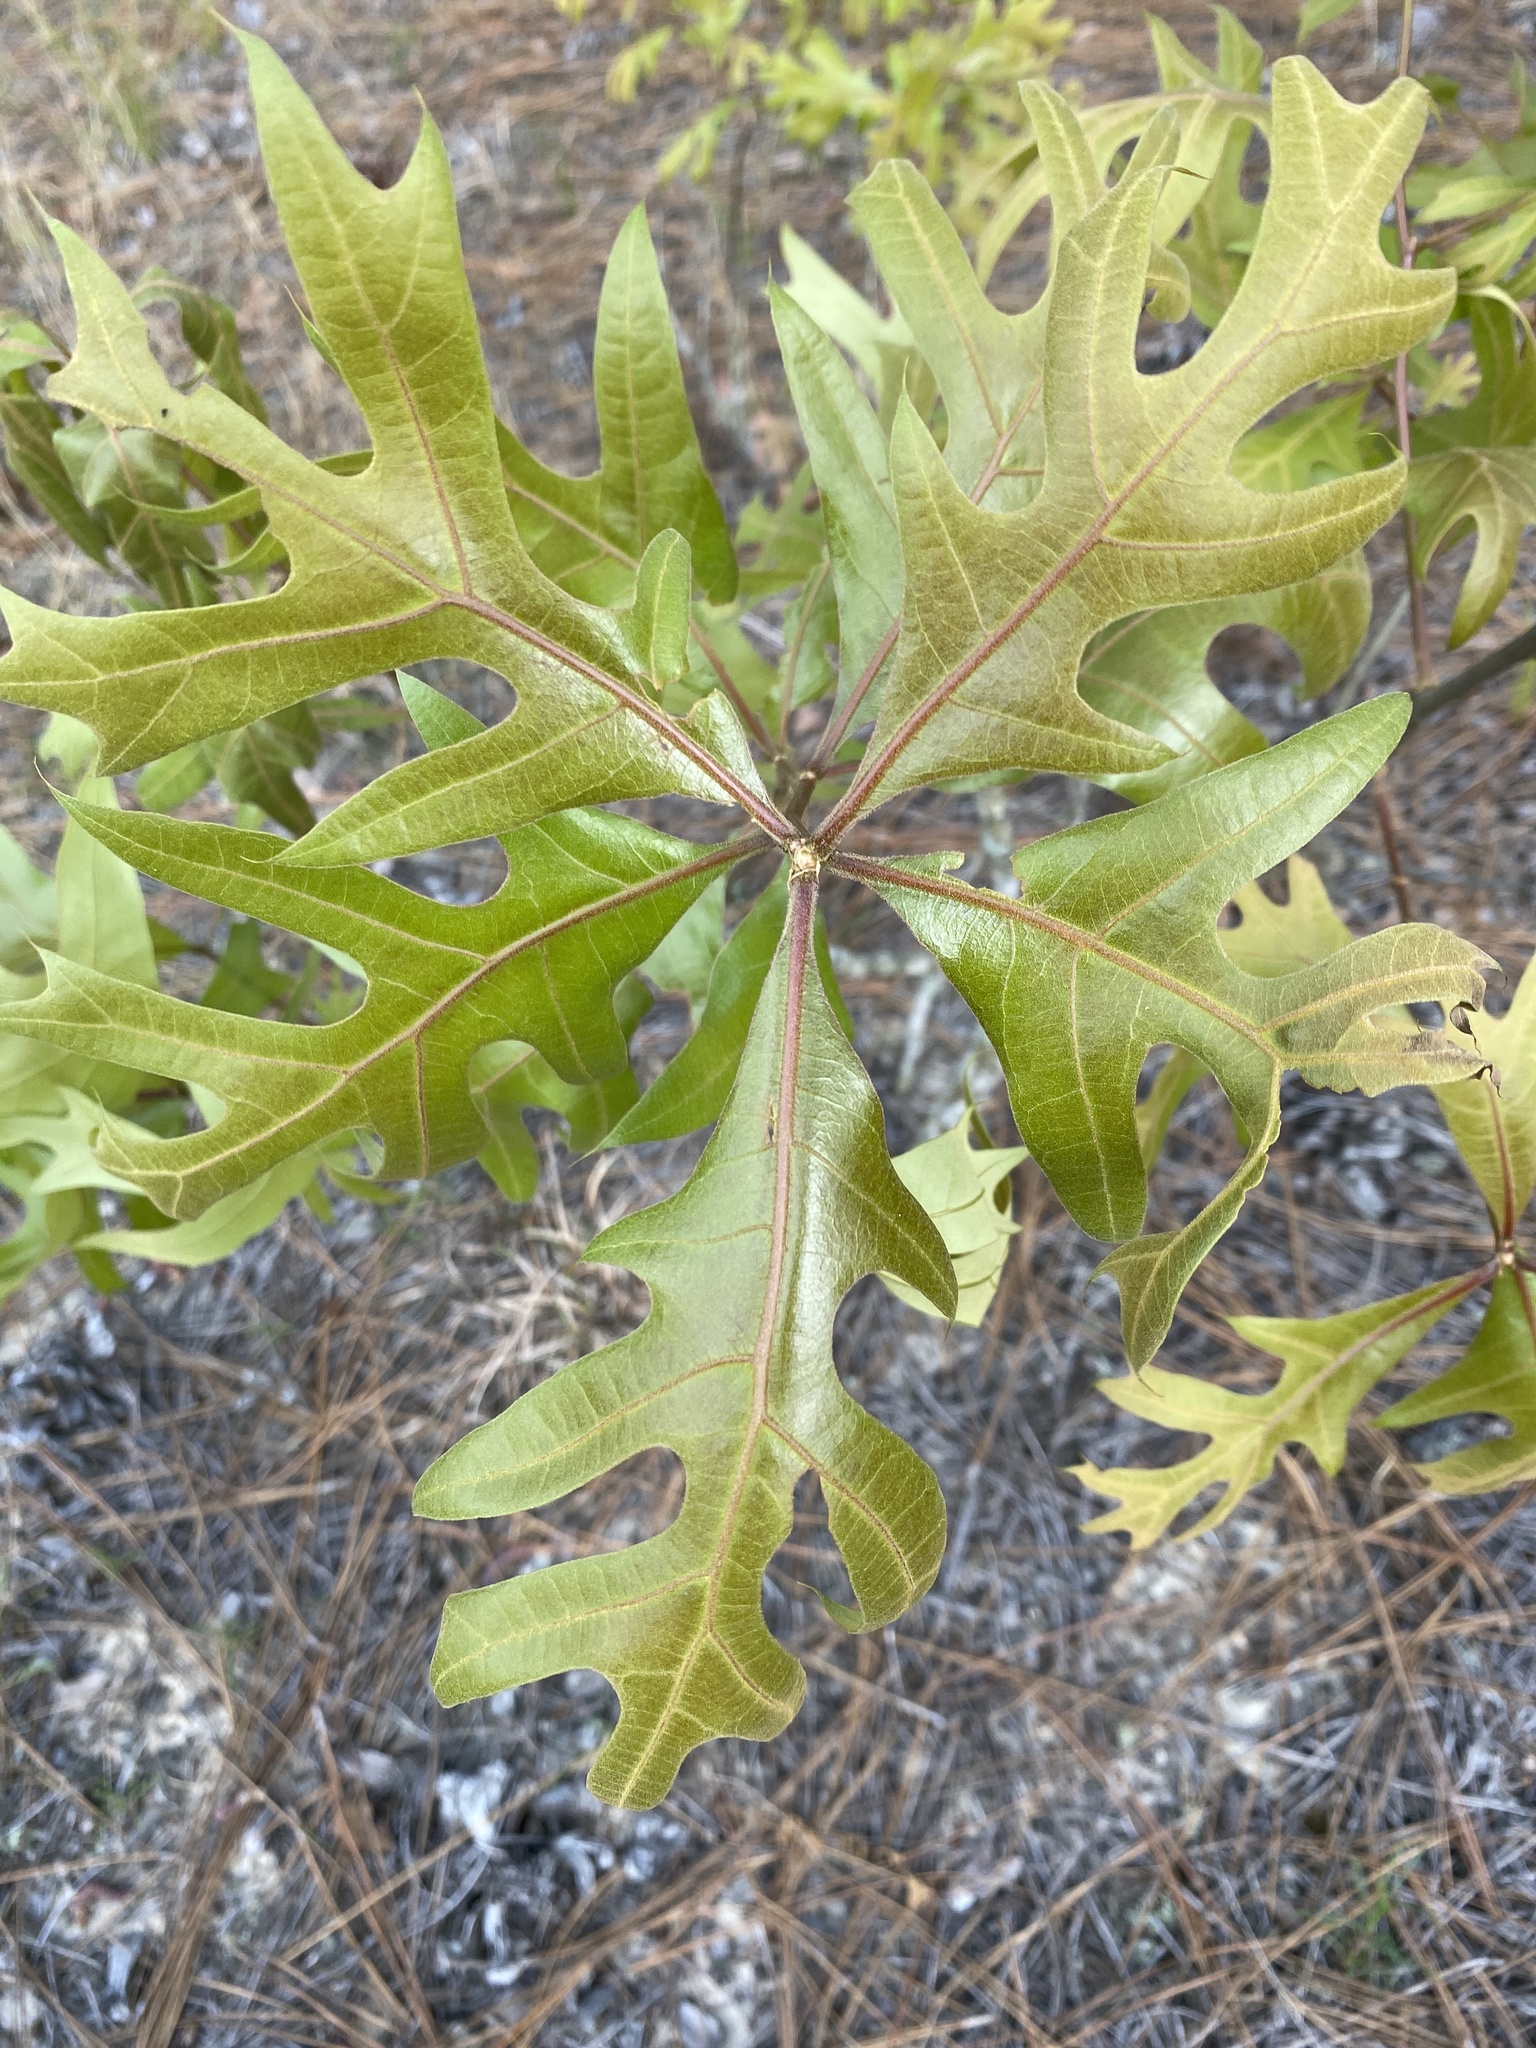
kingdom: Plantae
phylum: Tracheophyta
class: Magnoliopsida
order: Fagales
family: Fagaceae
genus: Quercus
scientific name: Quercus laevis
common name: Turkey oak
